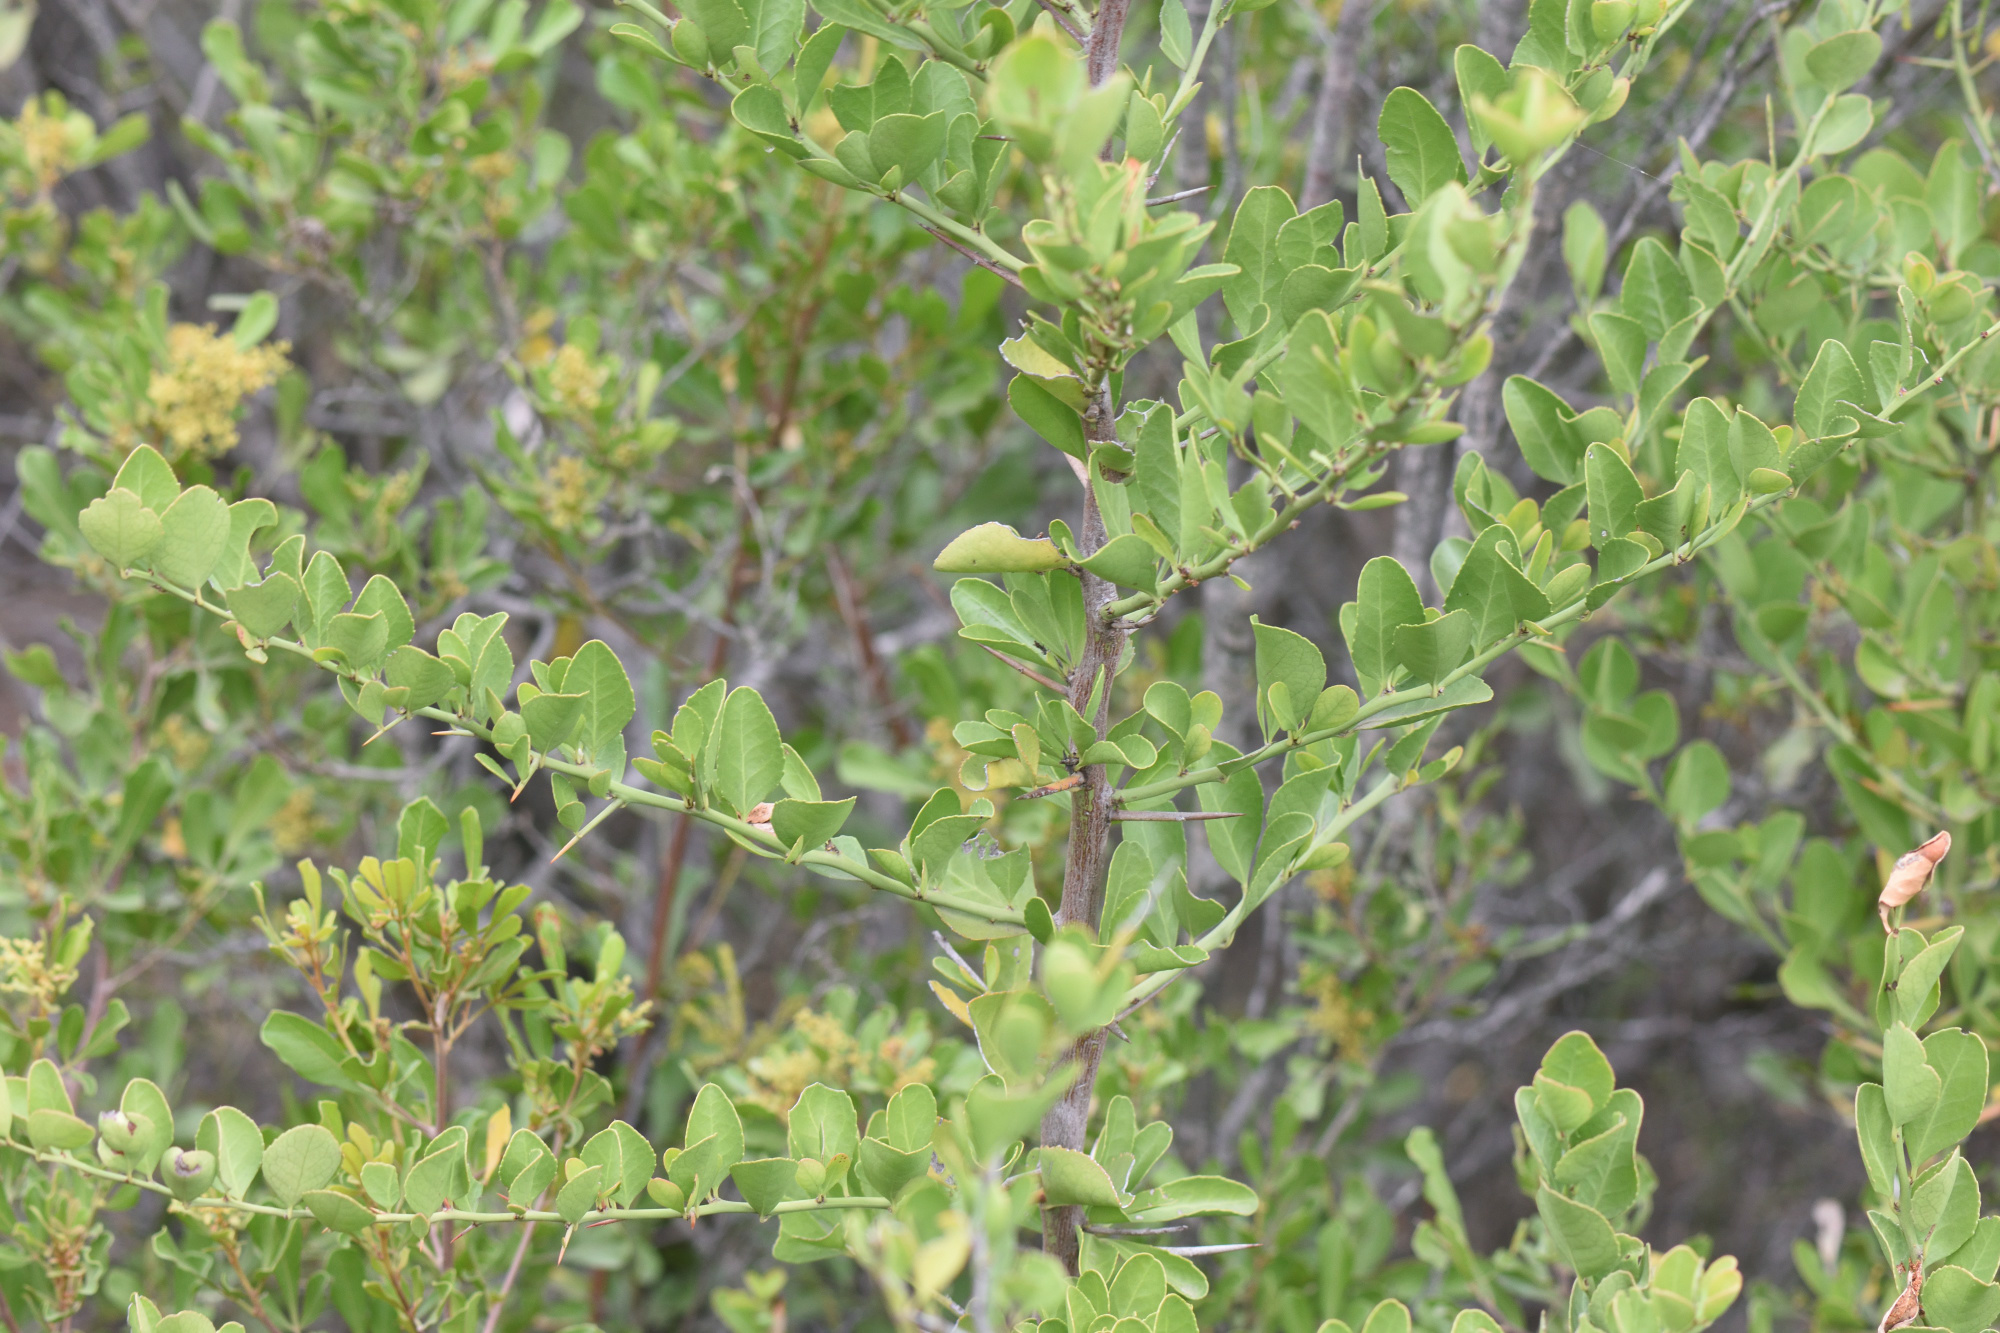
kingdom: Plantae
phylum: Tracheophyta
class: Magnoliopsida
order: Celastrales
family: Celastraceae
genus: Gymnosporia
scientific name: Gymnosporia buxifolia
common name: Common spike-thorn
